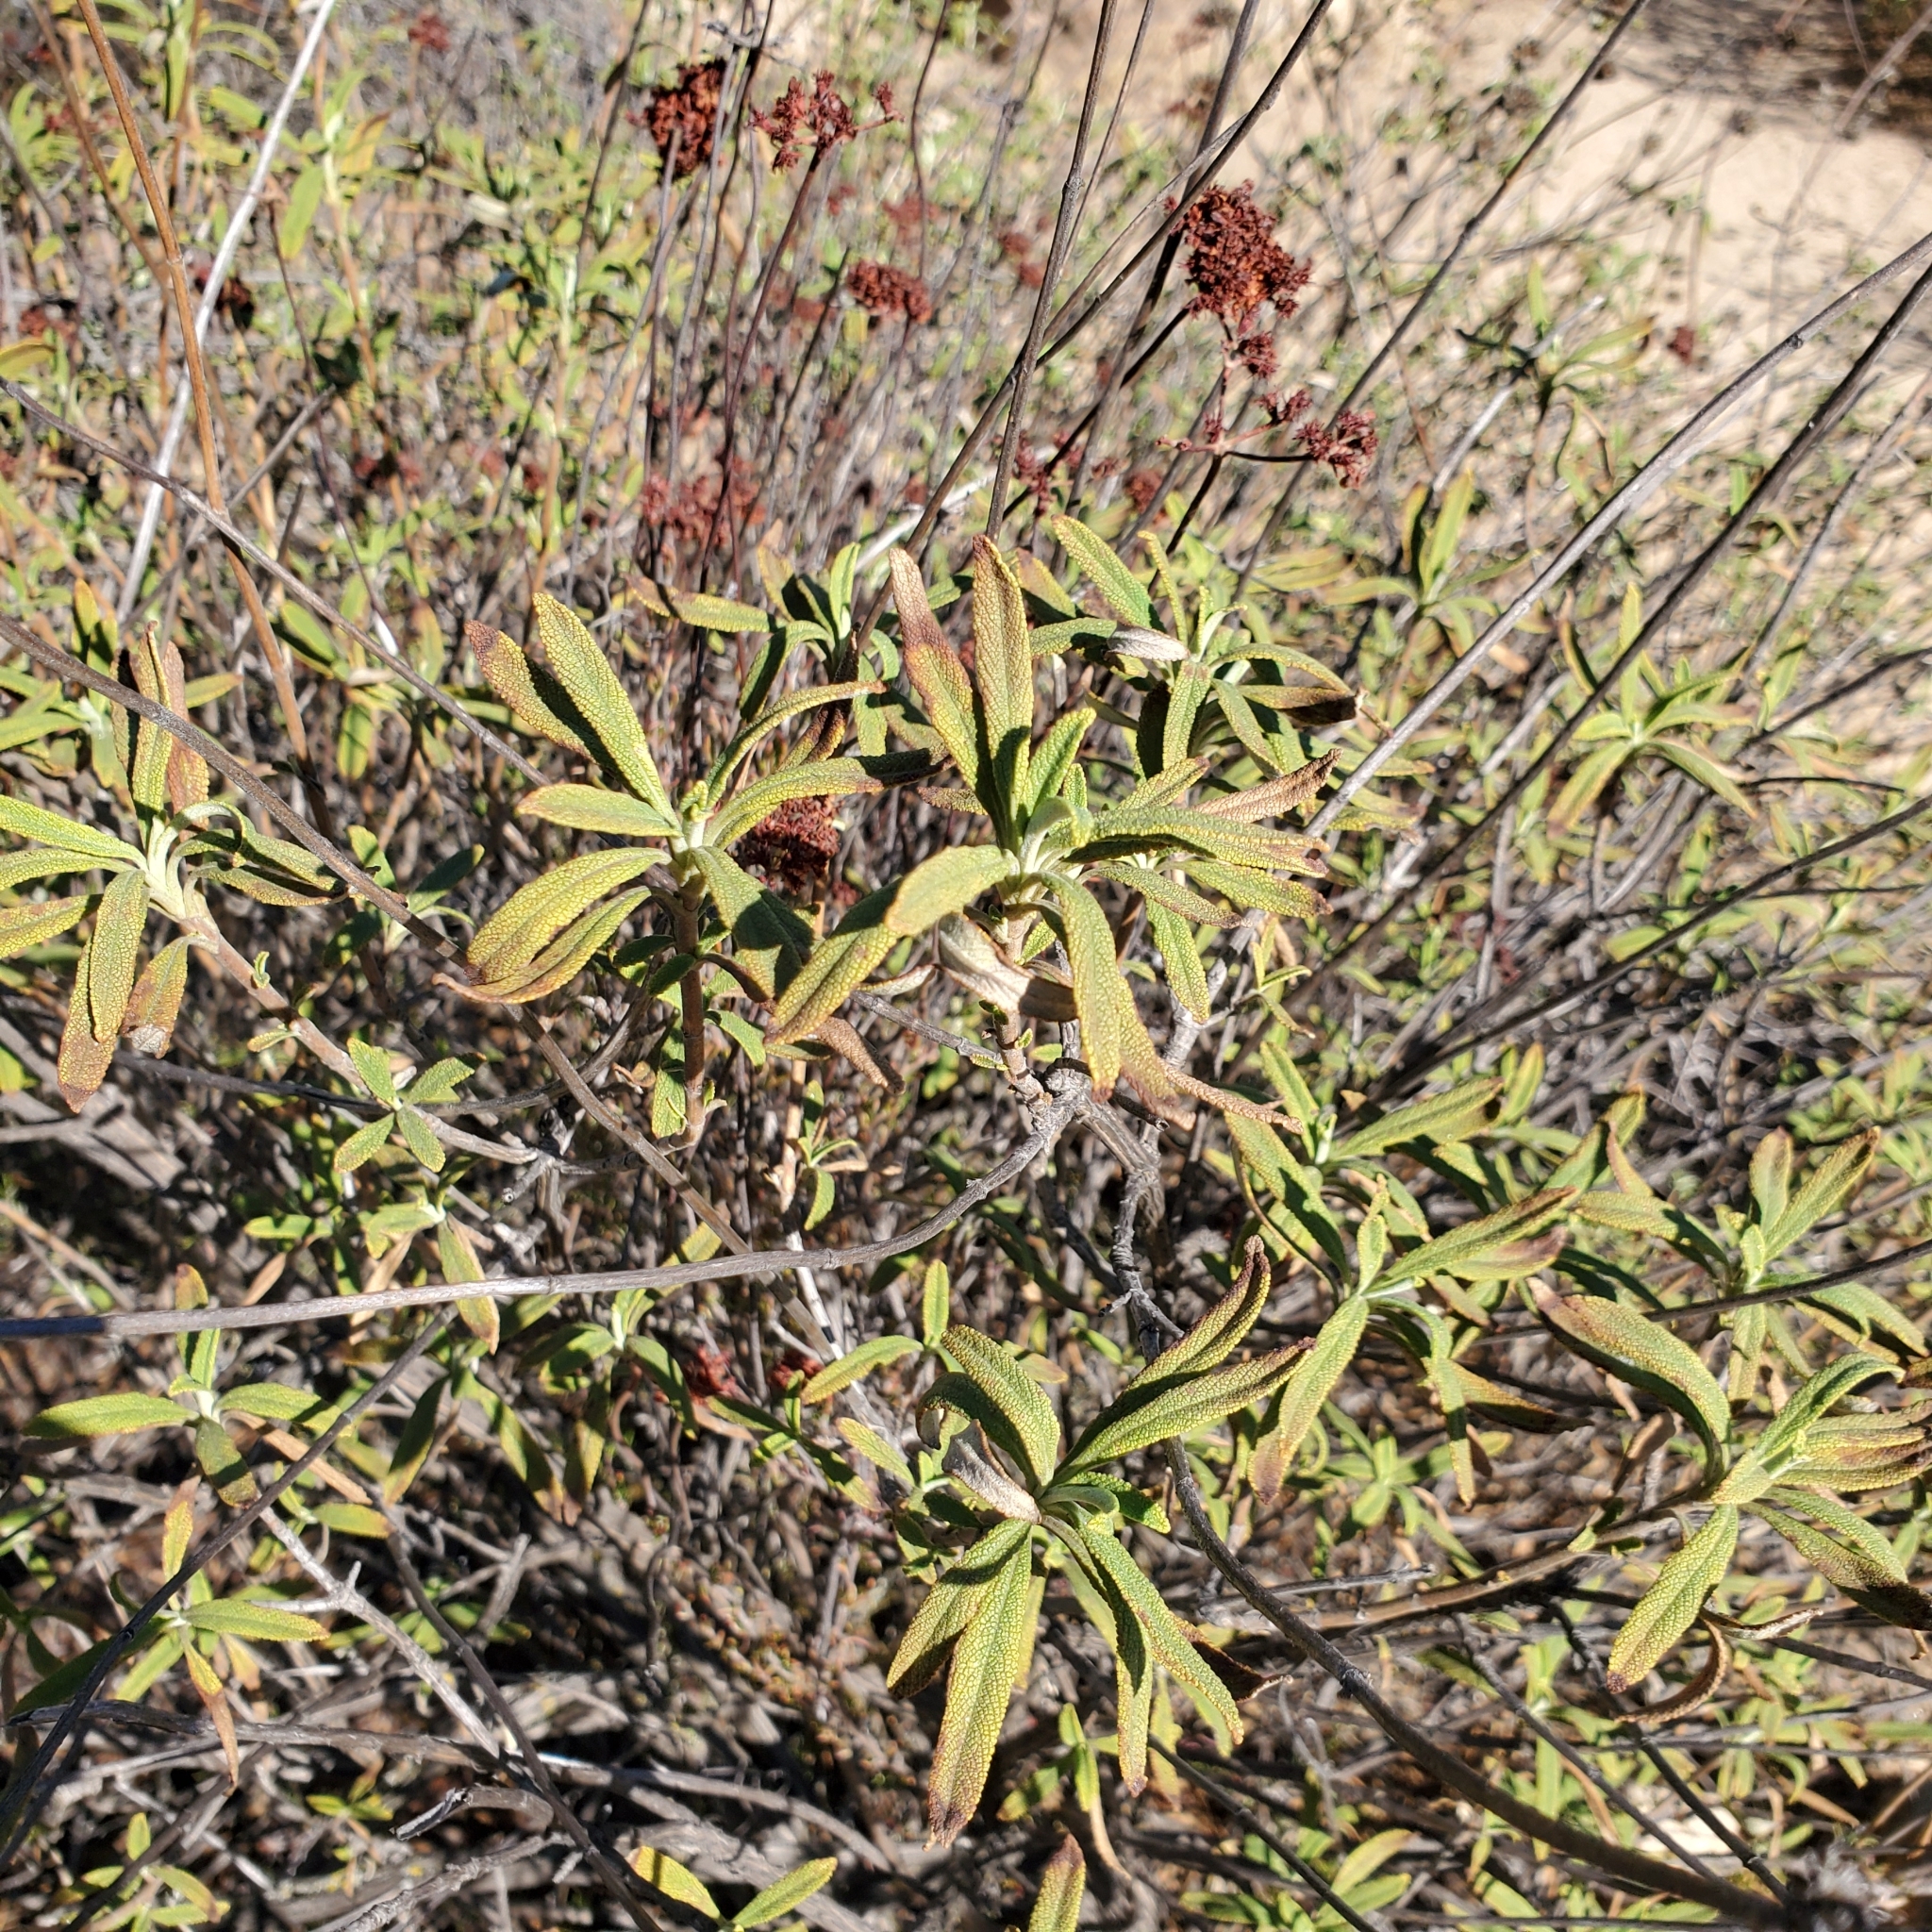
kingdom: Plantae
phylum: Tracheophyta
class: Magnoliopsida
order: Lamiales
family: Lamiaceae
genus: Salvia
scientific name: Salvia mellifera
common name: Black sage
